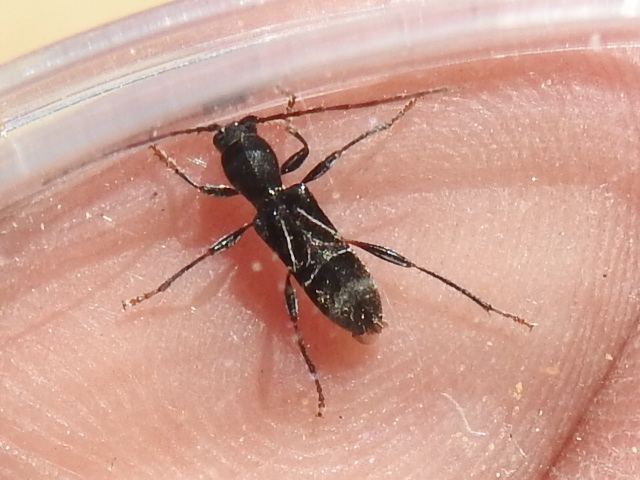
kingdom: Animalia
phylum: Arthropoda
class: Insecta
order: Coleoptera
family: Cerambycidae
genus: Cyrtophorus
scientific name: Cyrtophorus verrucosus
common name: Ant-like longhorn beetle
